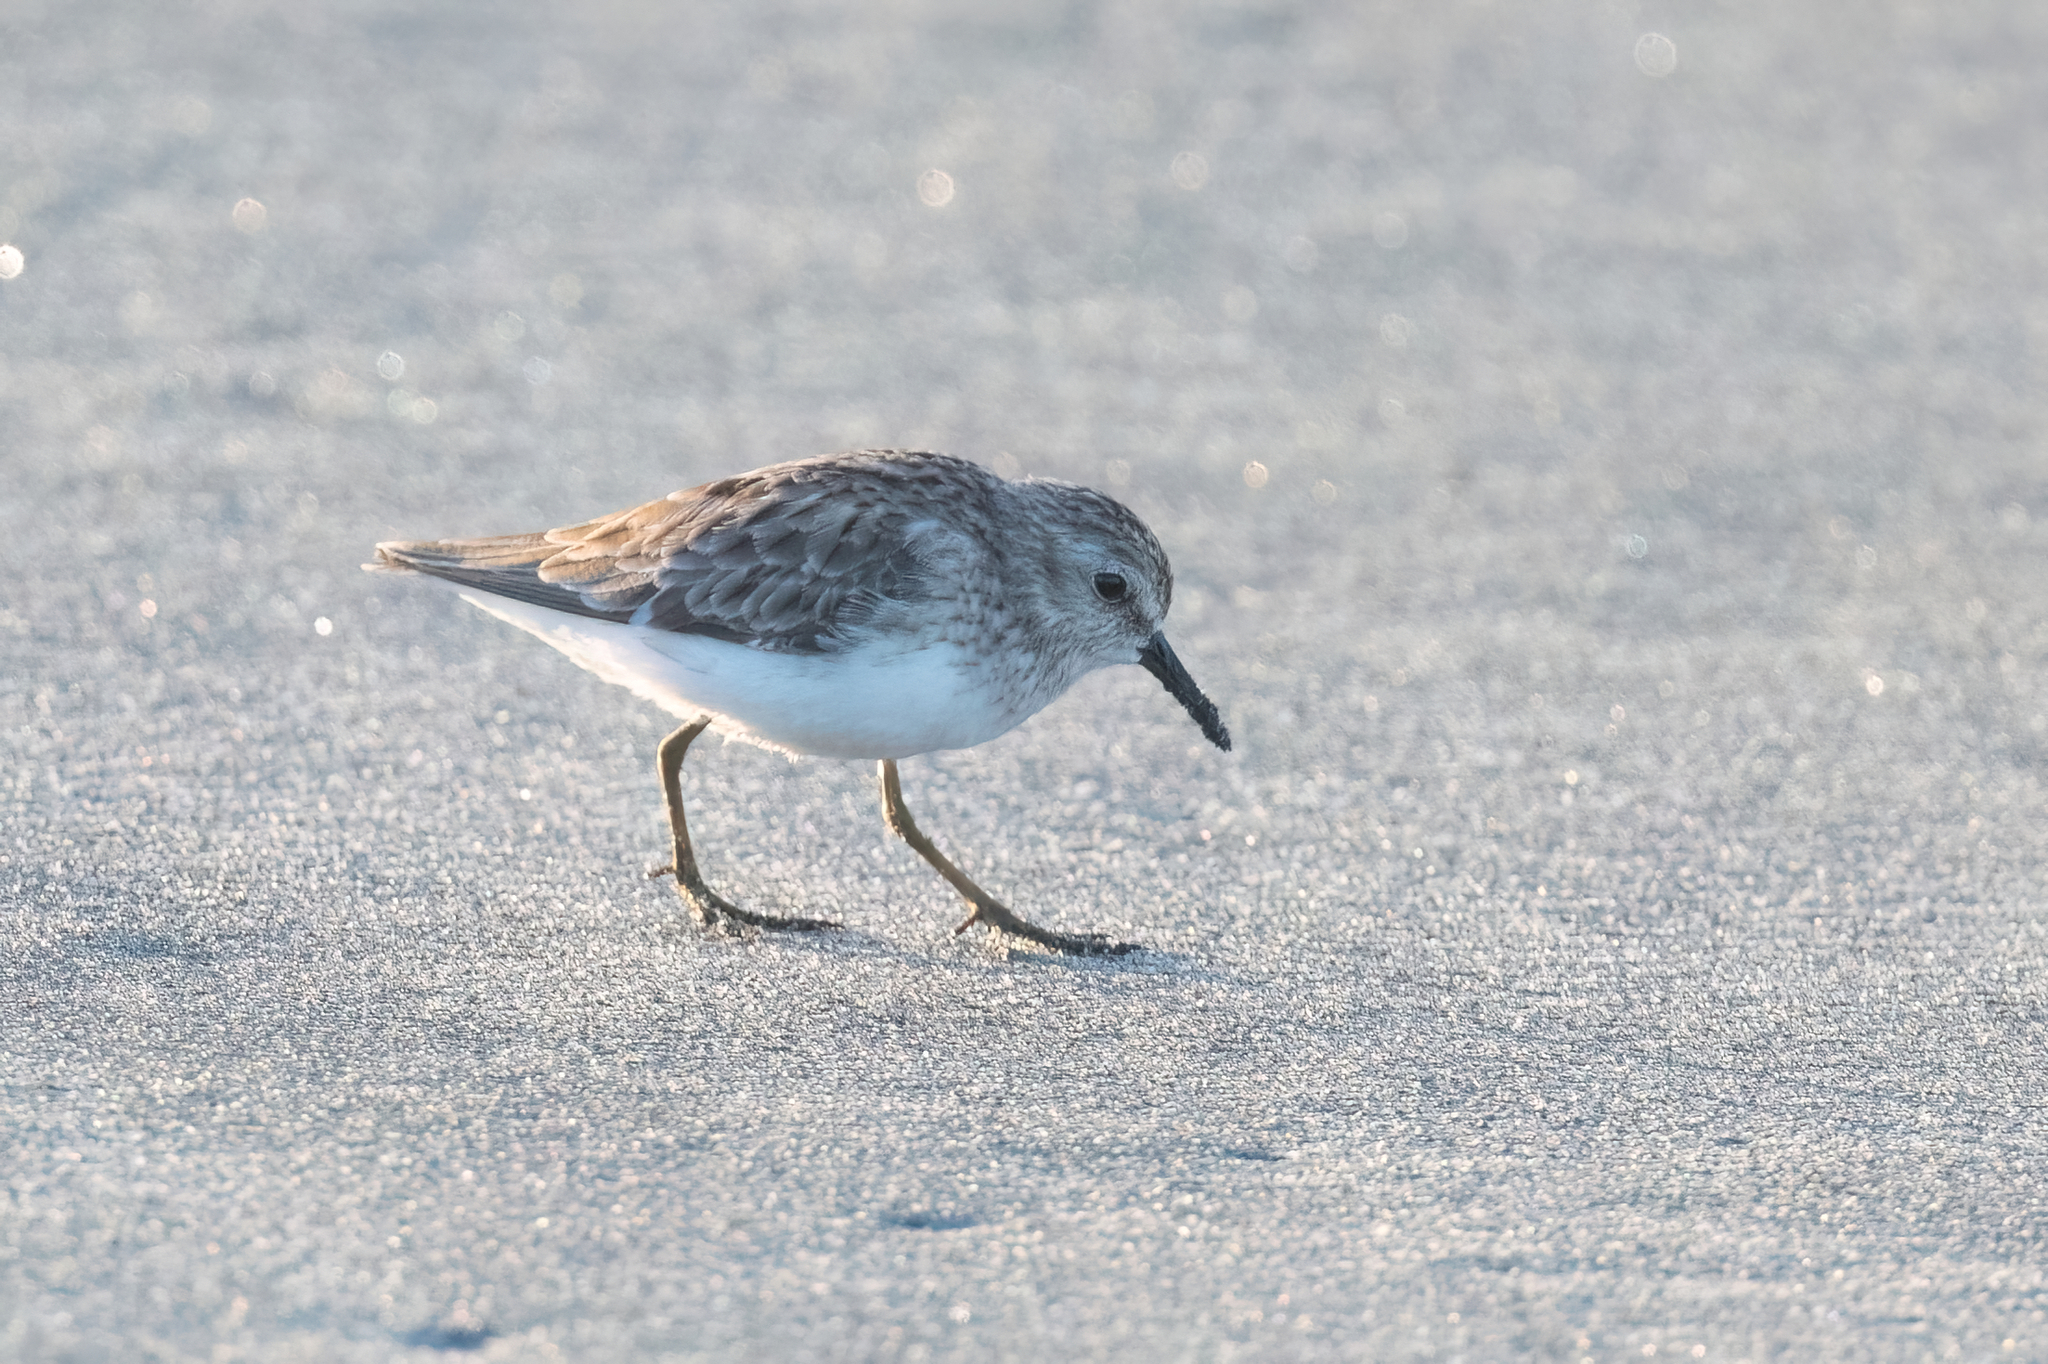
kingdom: Animalia
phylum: Chordata
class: Aves
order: Charadriiformes
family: Scolopacidae
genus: Calidris
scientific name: Calidris minutilla
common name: Least sandpiper
